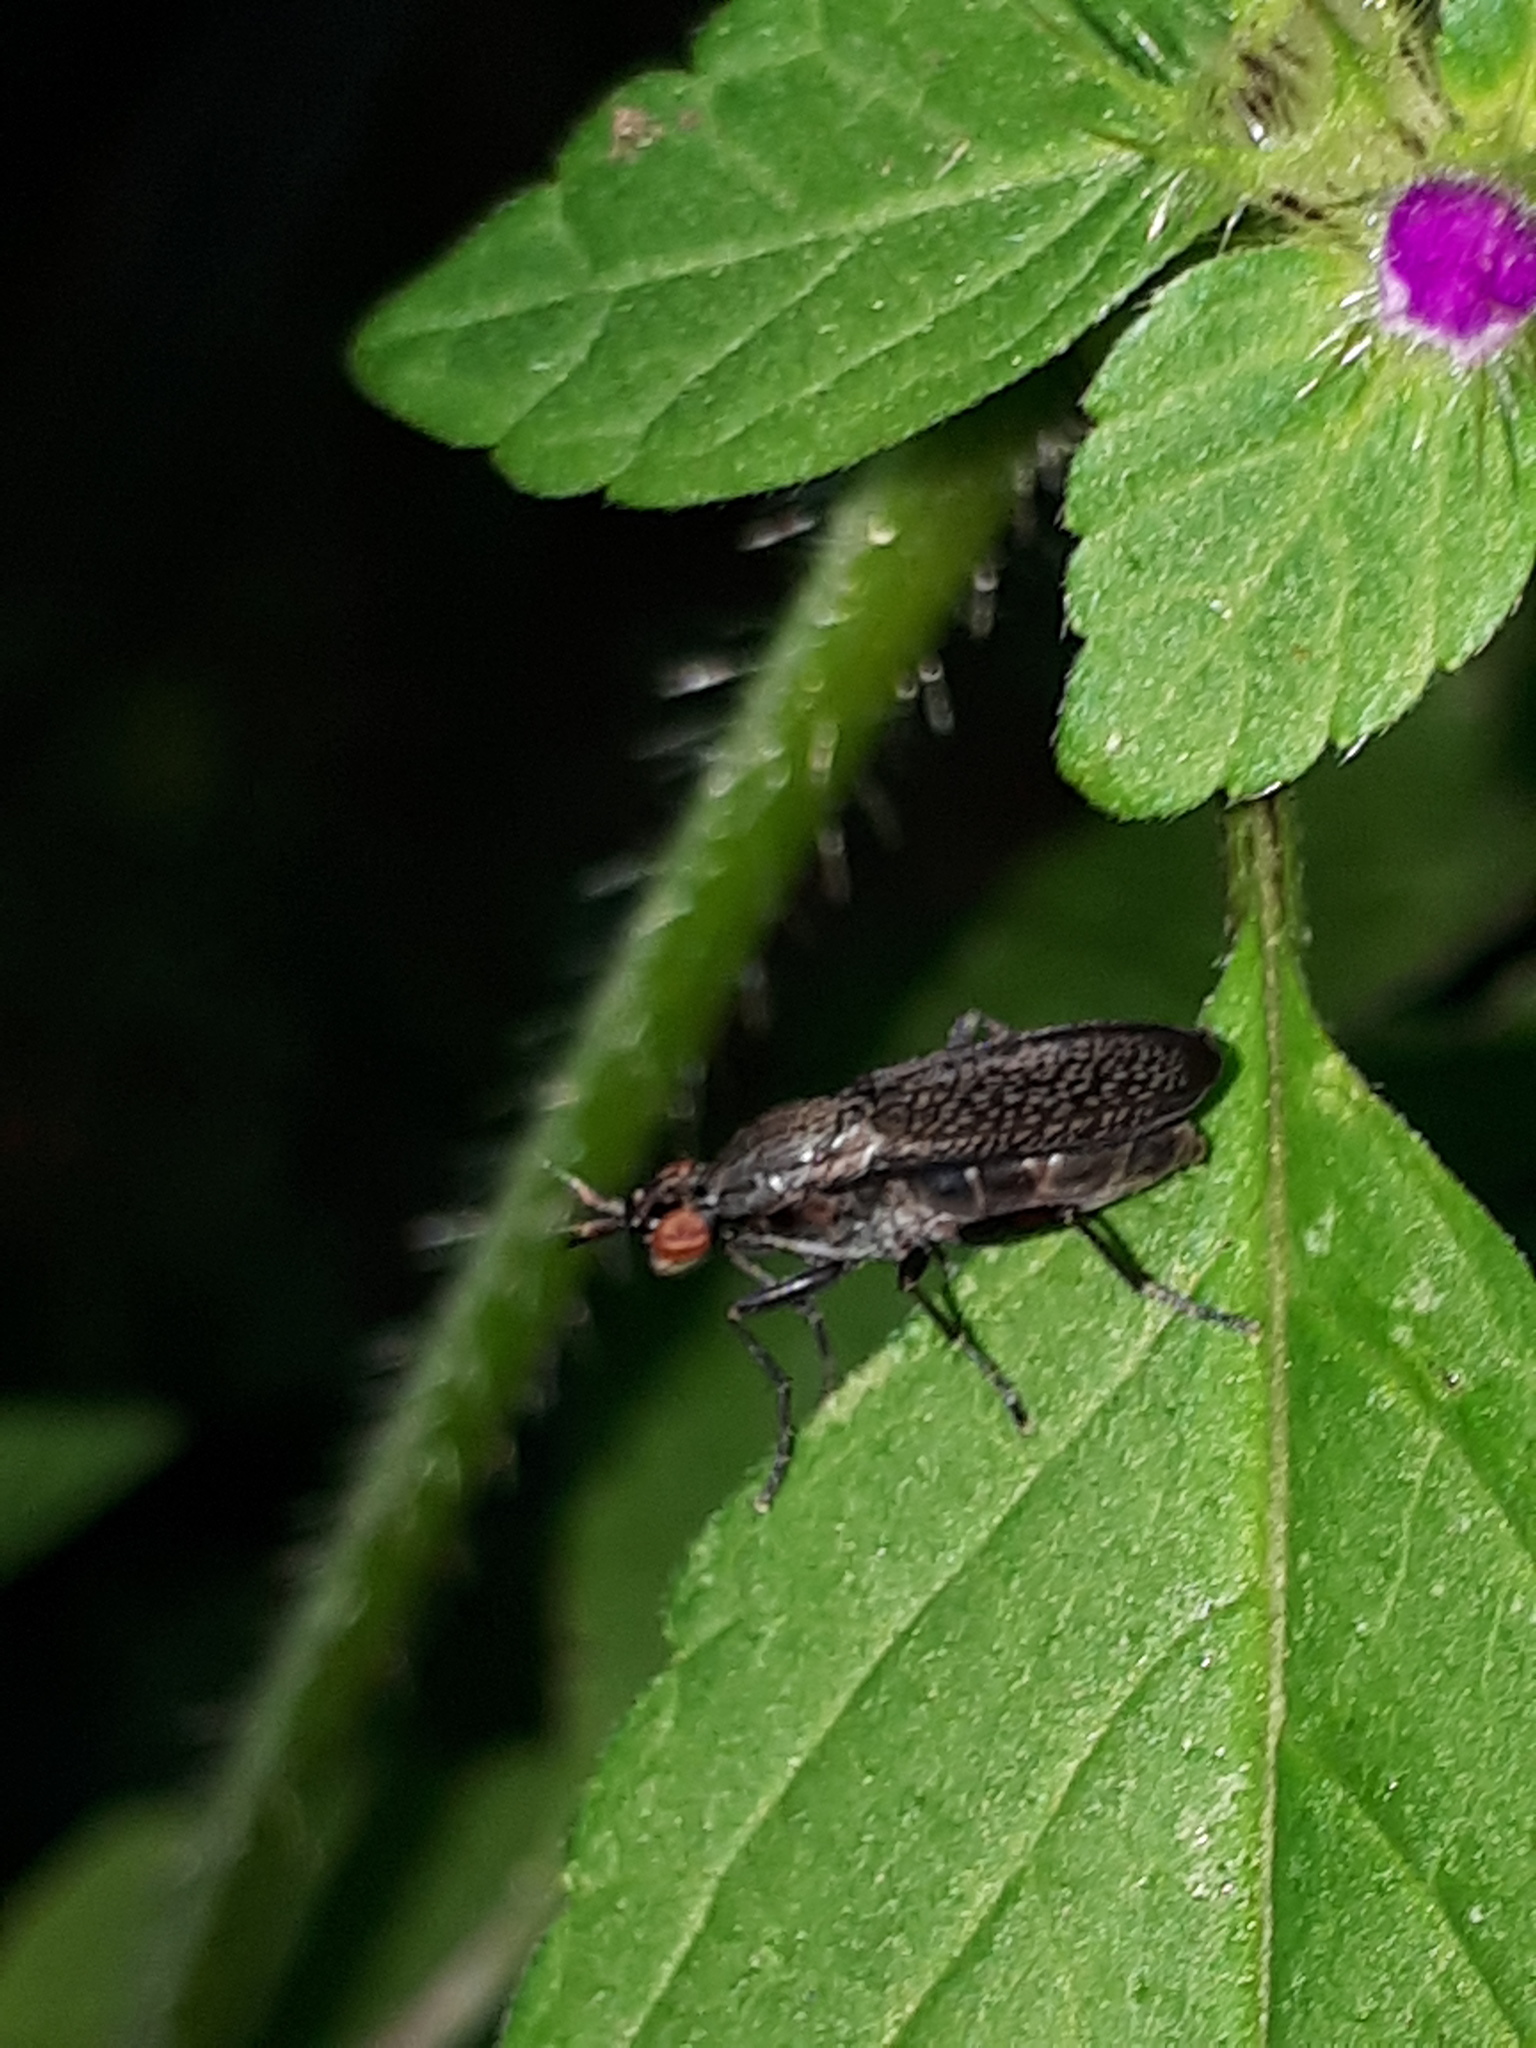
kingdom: Animalia
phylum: Arthropoda
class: Insecta
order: Diptera
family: Sciomyzidae
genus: Coremacera
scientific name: Coremacera marginata
